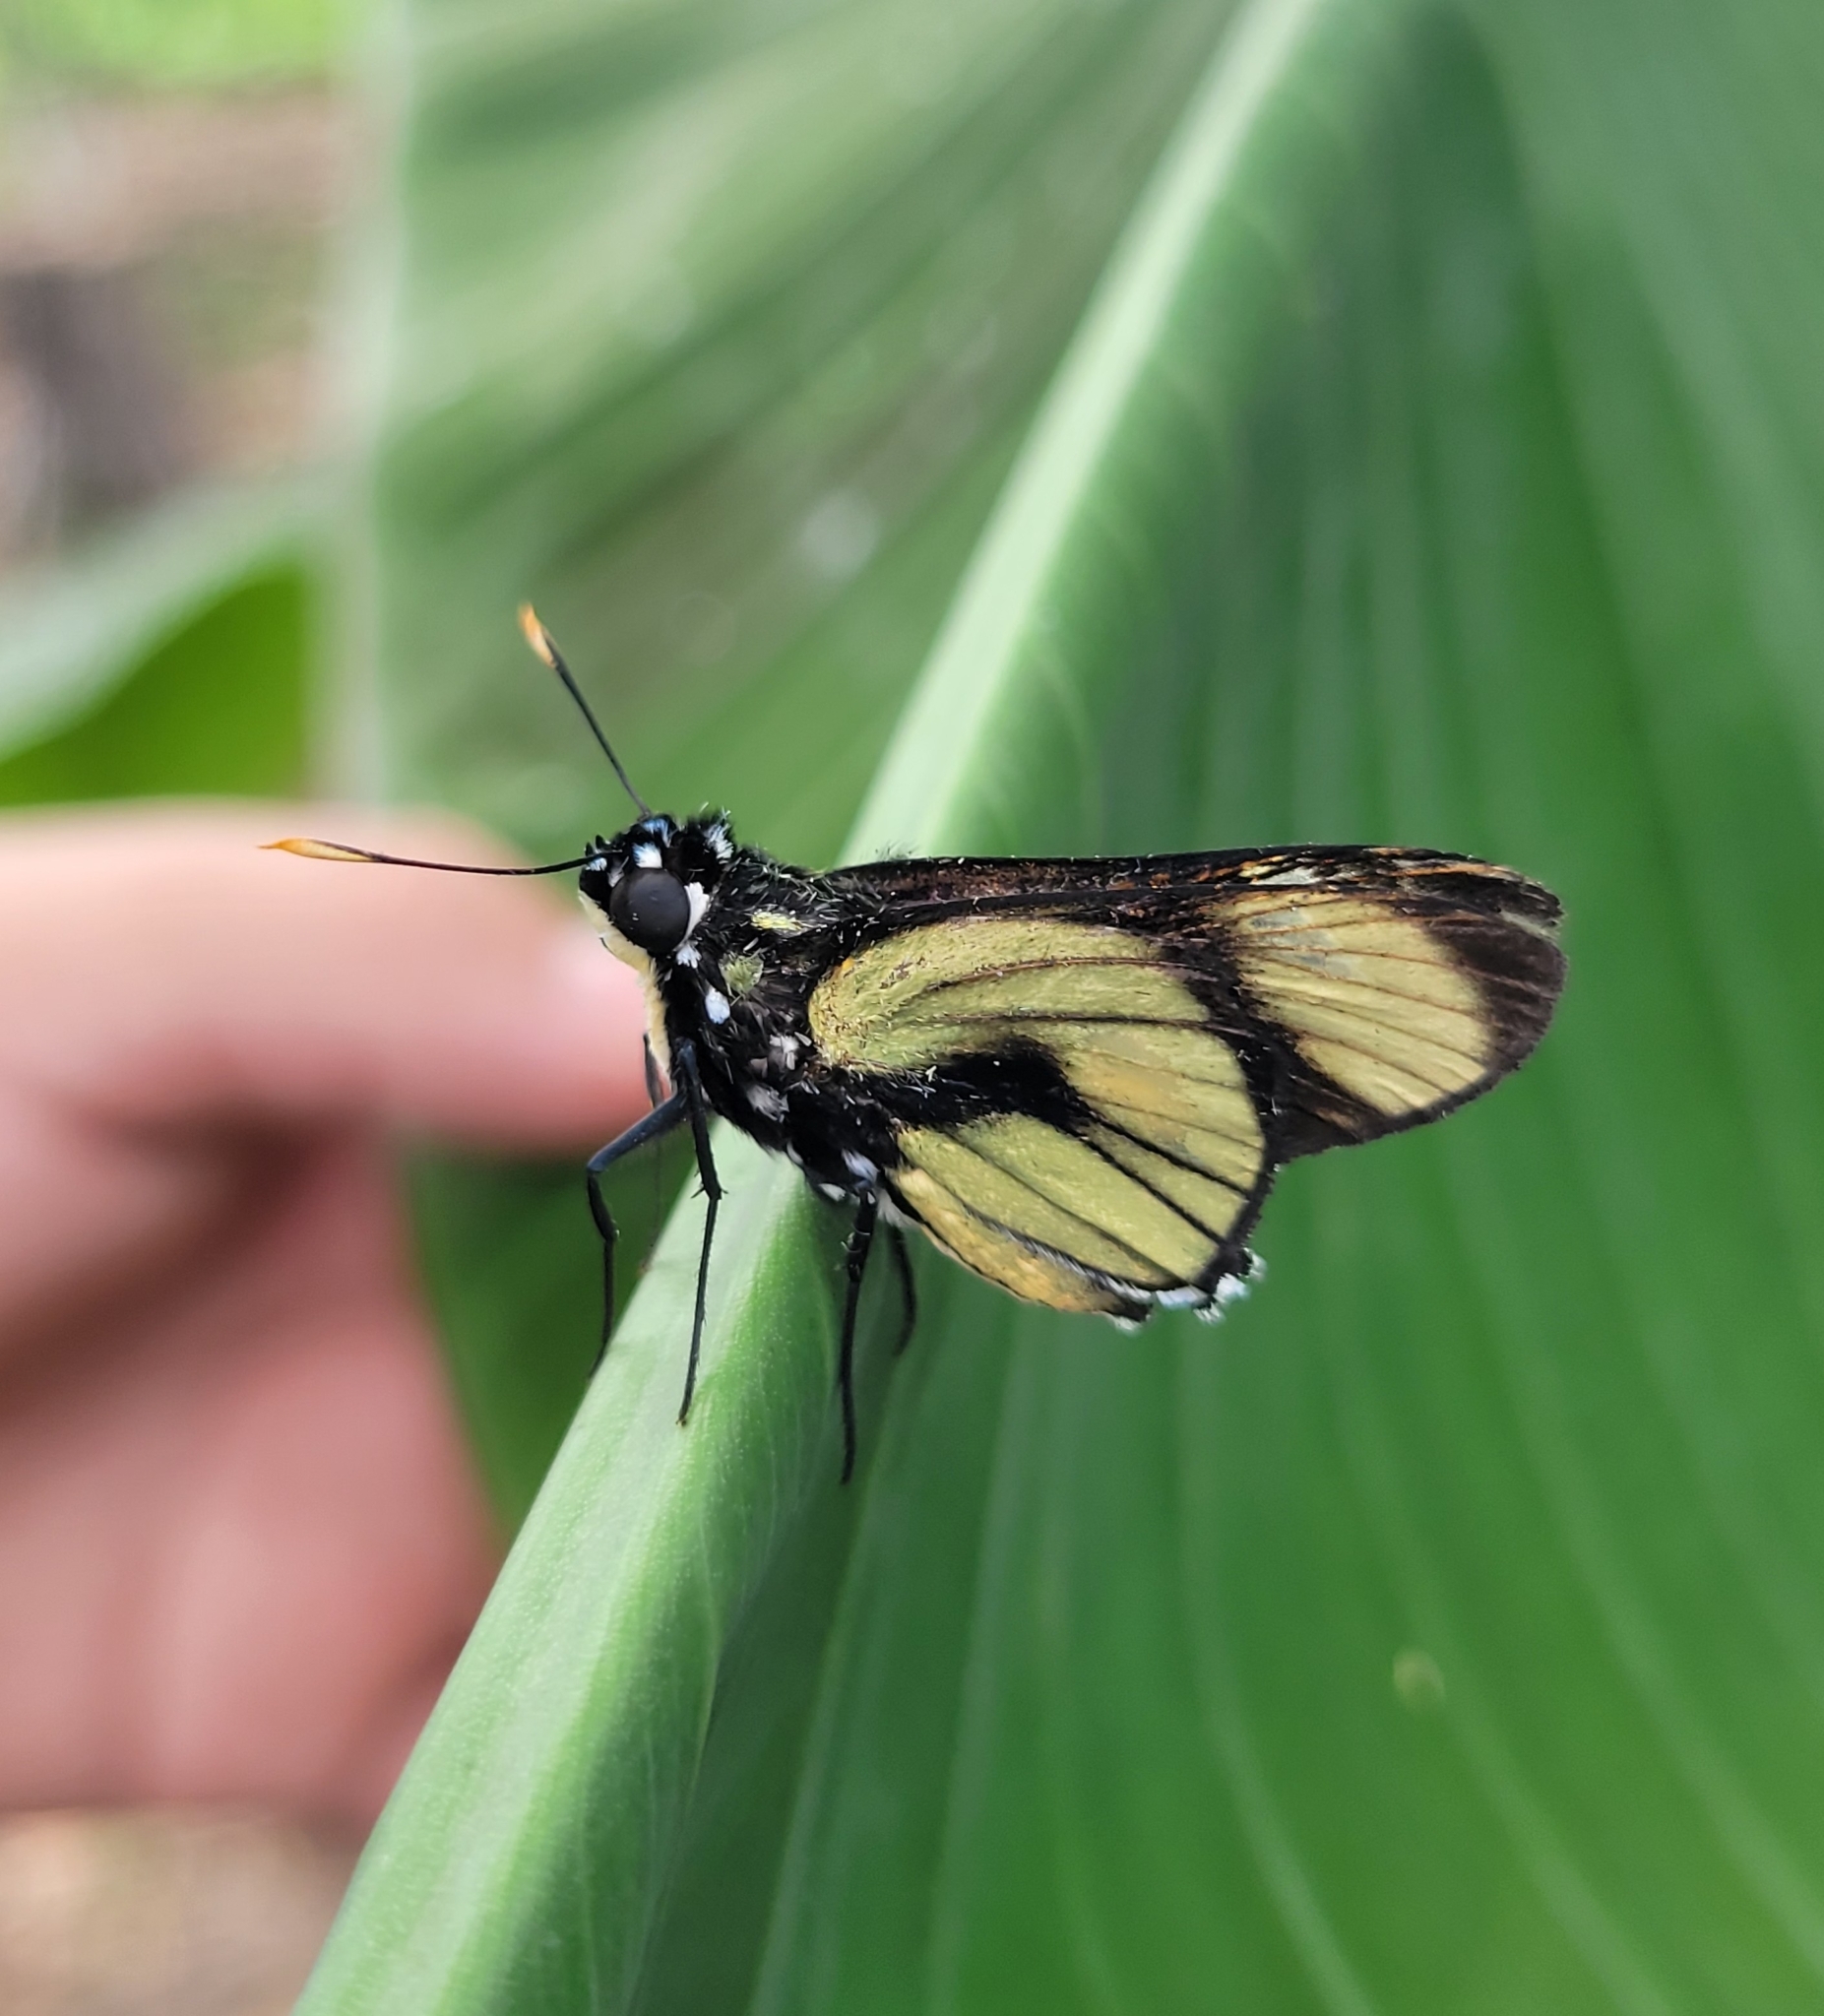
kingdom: Animalia
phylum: Arthropoda
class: Insecta
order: Lepidoptera
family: Hesperiidae
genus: Chloeria
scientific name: Chloeria psittacina
